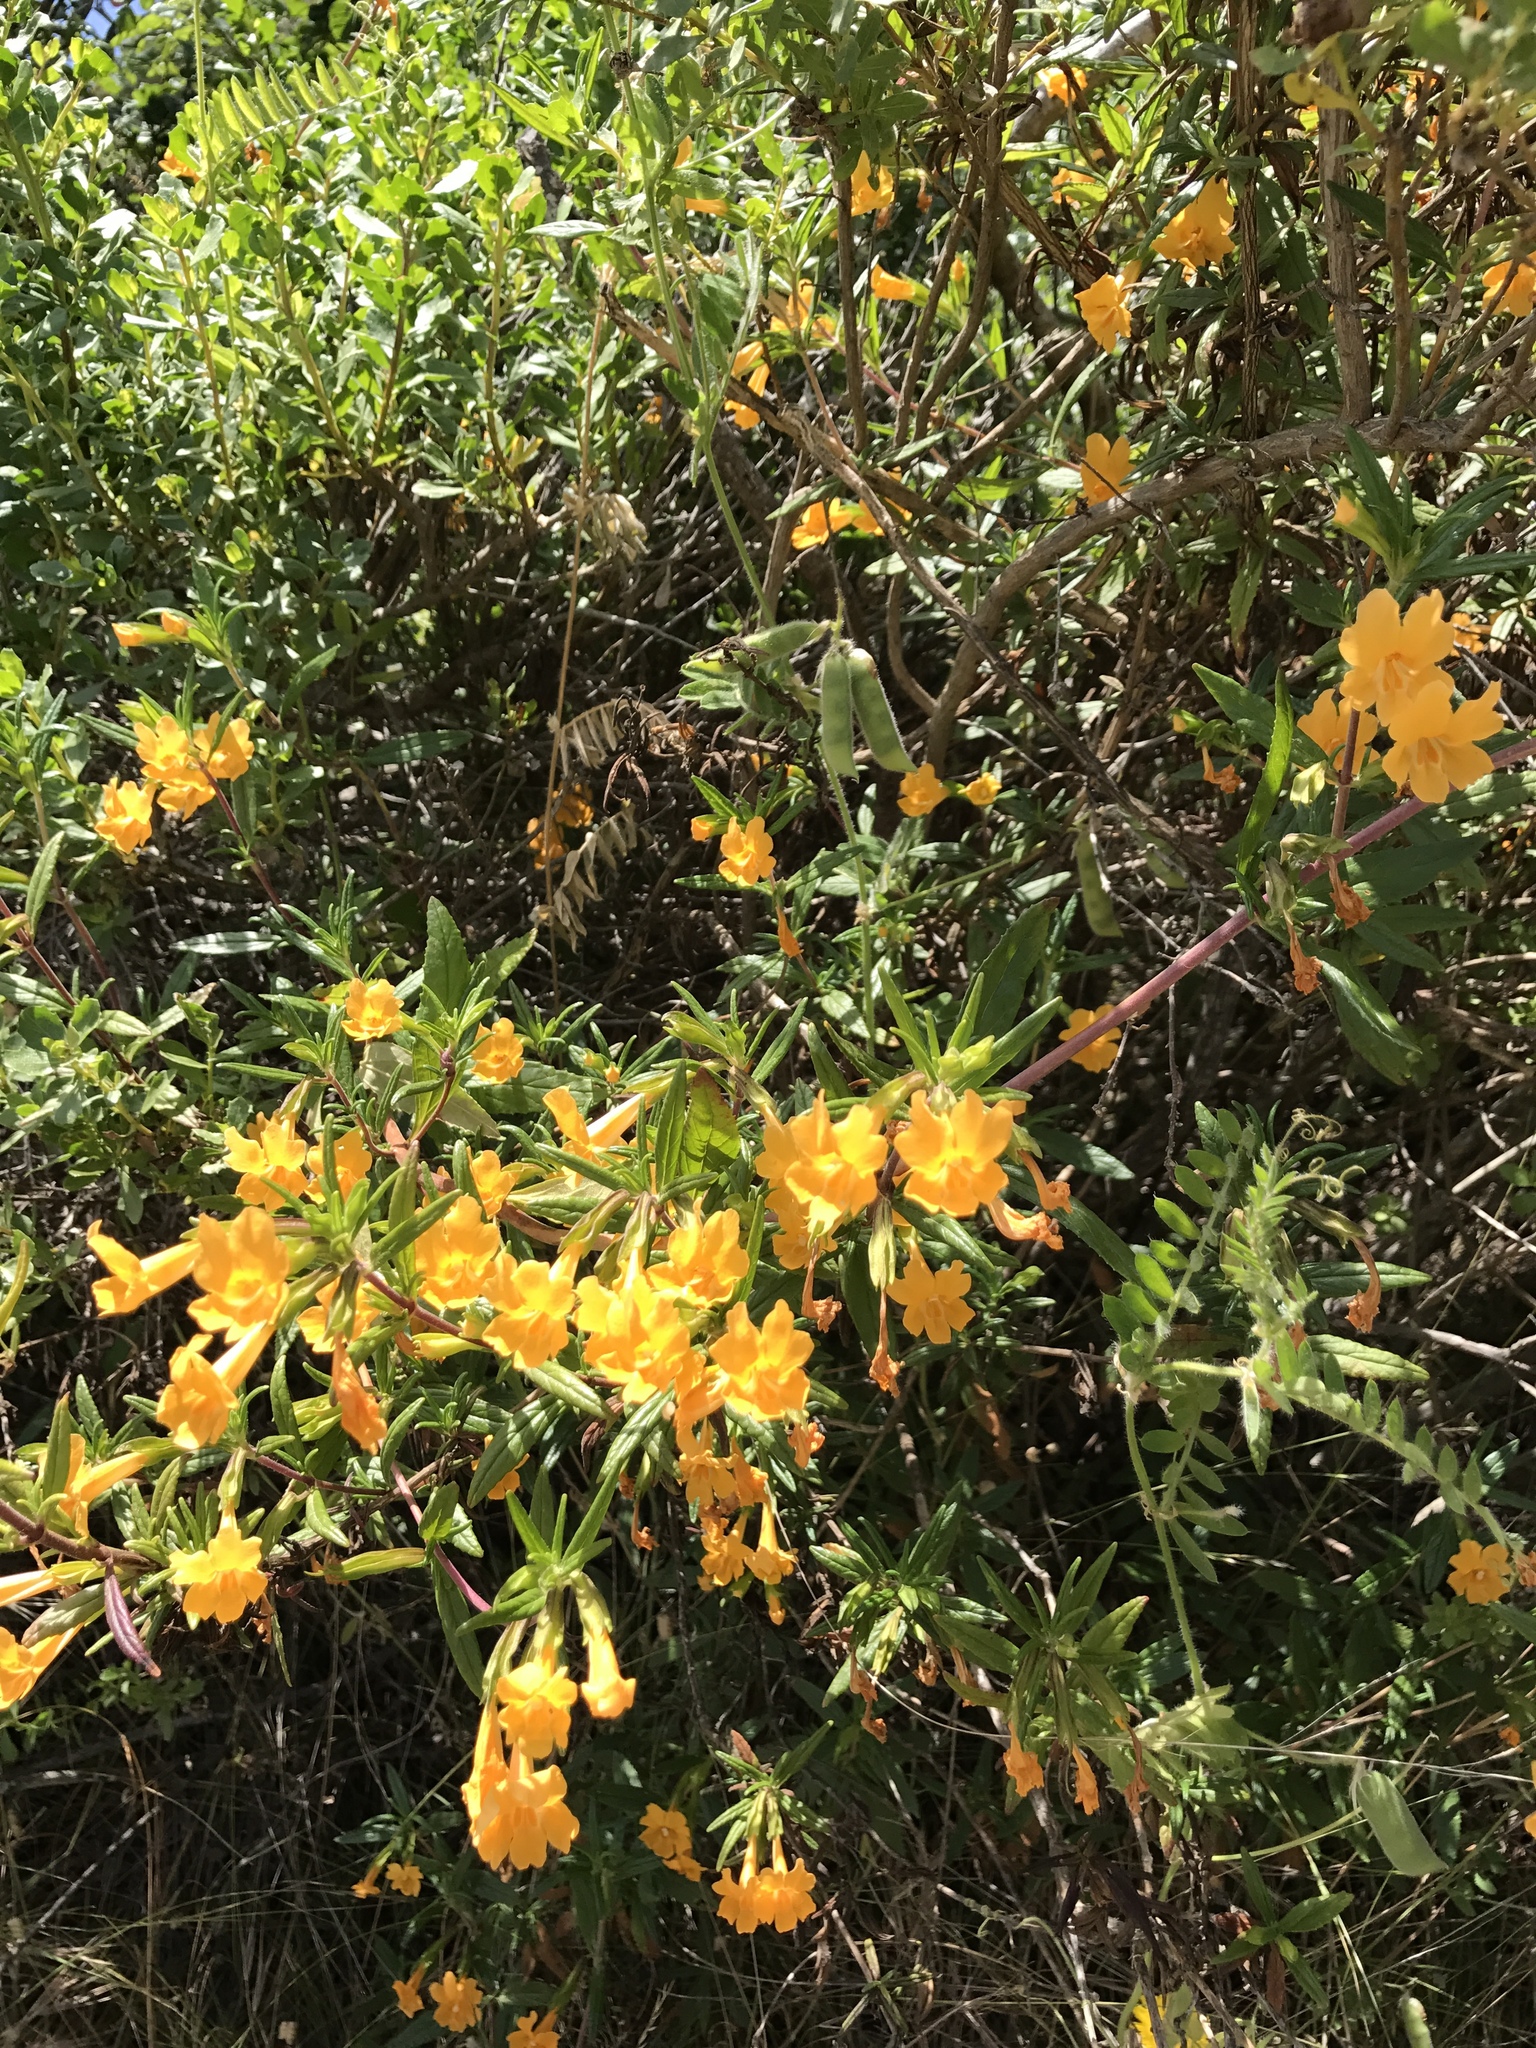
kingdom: Plantae
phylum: Tracheophyta
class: Magnoliopsida
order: Lamiales
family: Phrymaceae
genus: Diplacus
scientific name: Diplacus aurantiacus
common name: Bush monkey-flower
